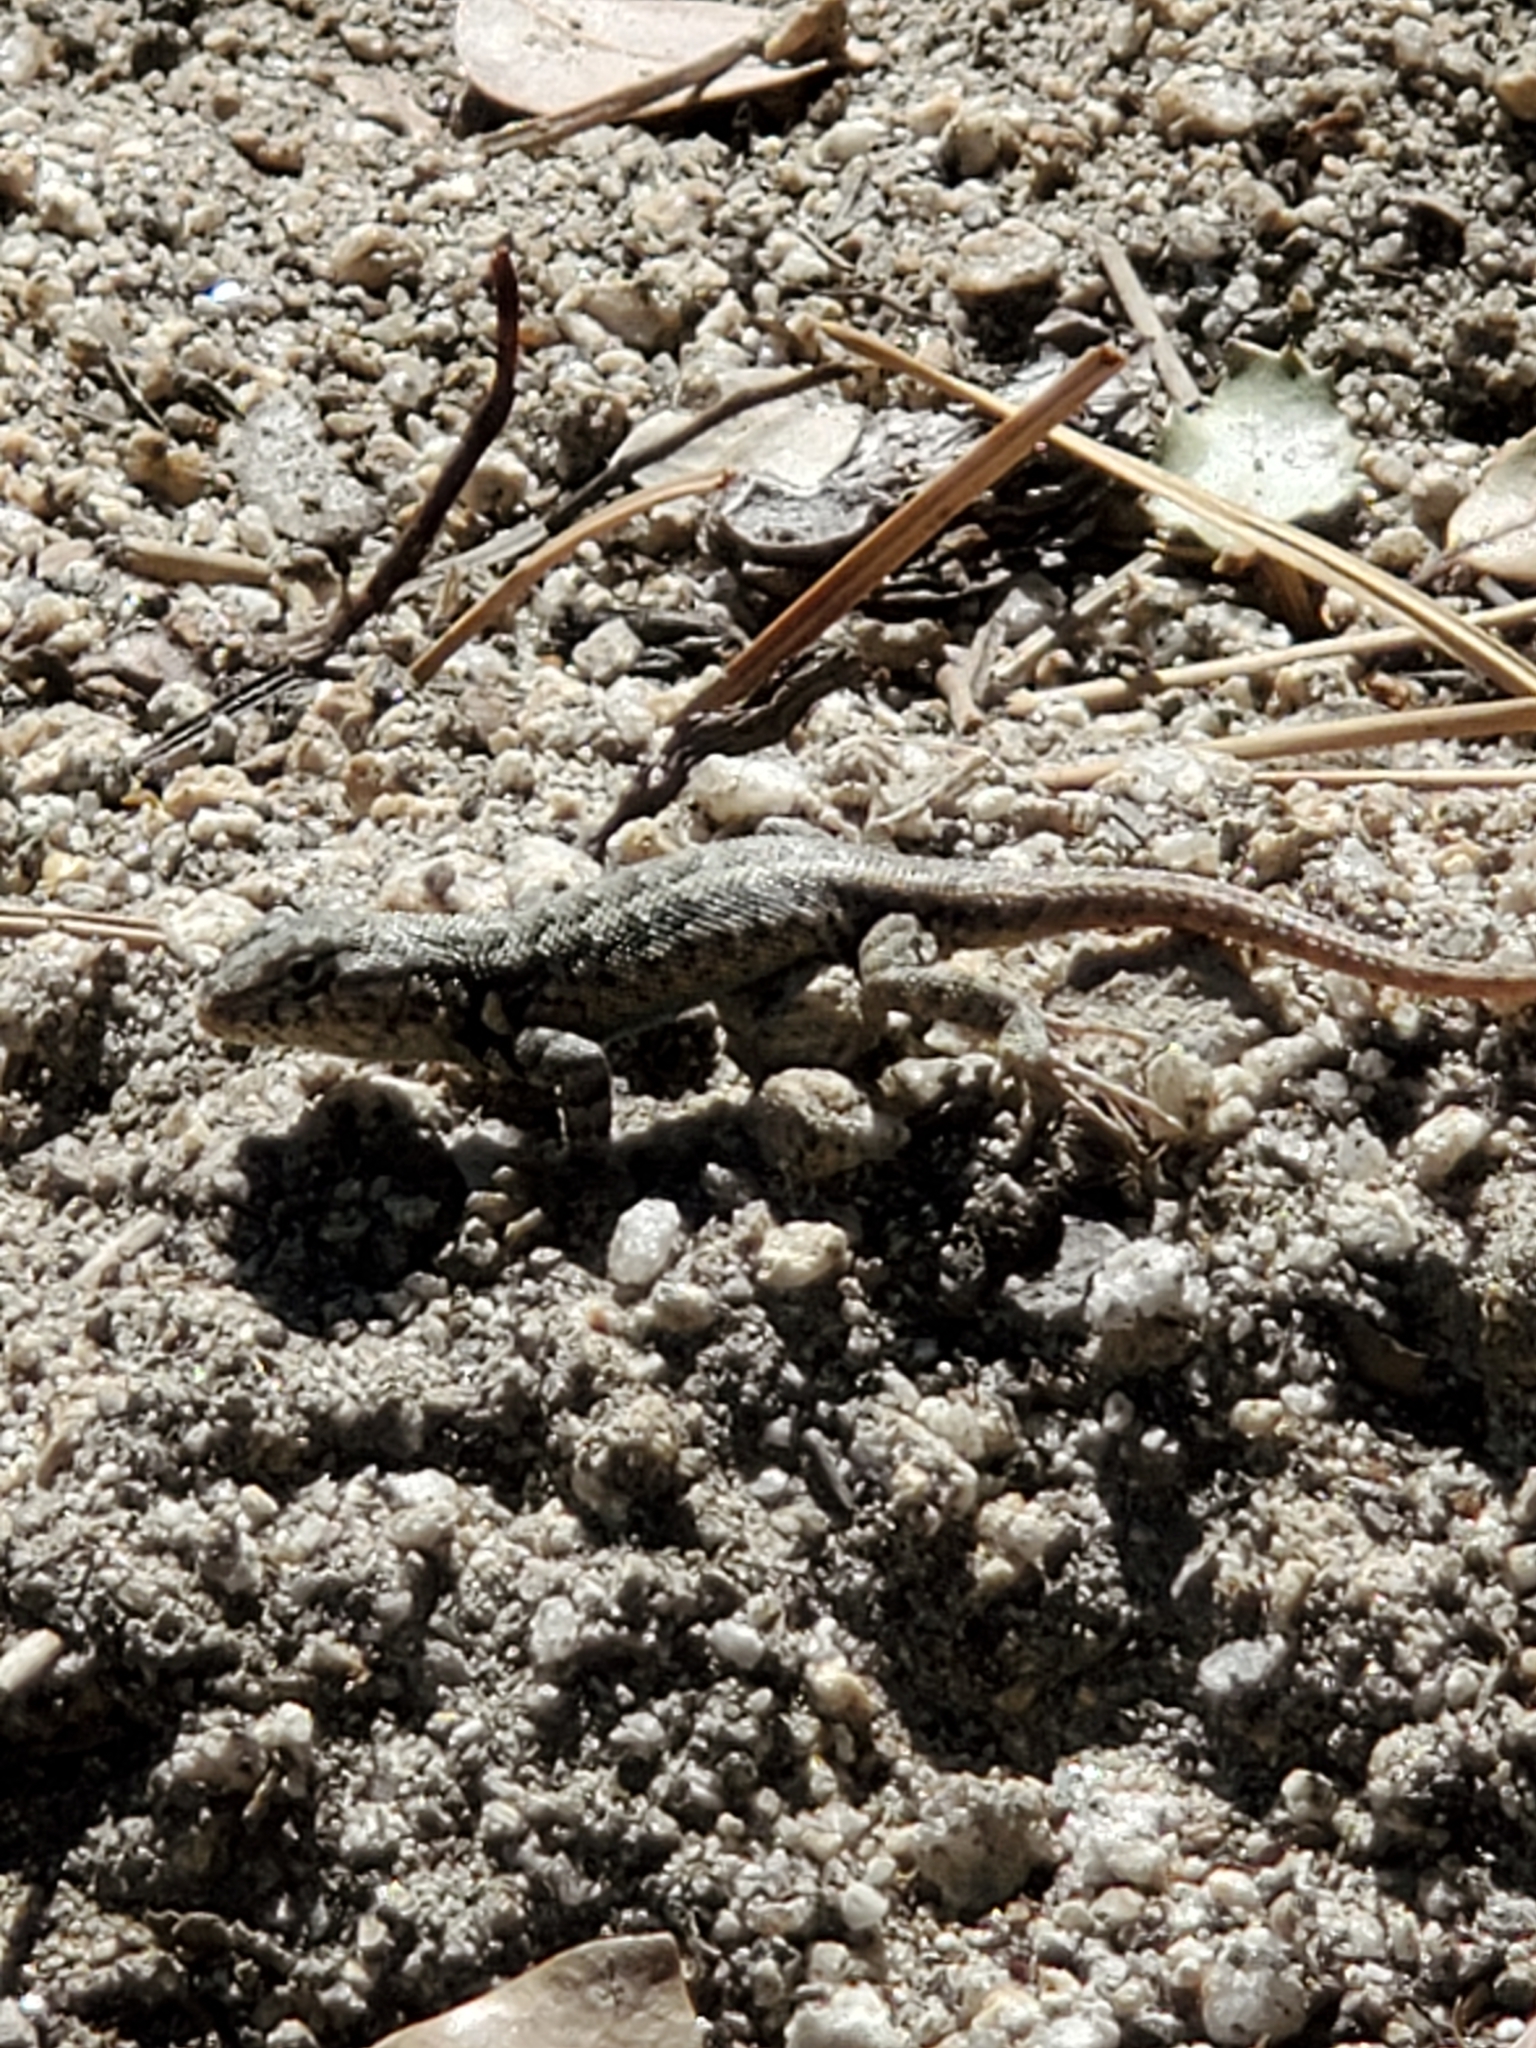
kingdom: Animalia
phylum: Chordata
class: Squamata
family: Phrynosomatidae
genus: Sceloporus
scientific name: Sceloporus graciosus
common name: Sagebrush lizard
